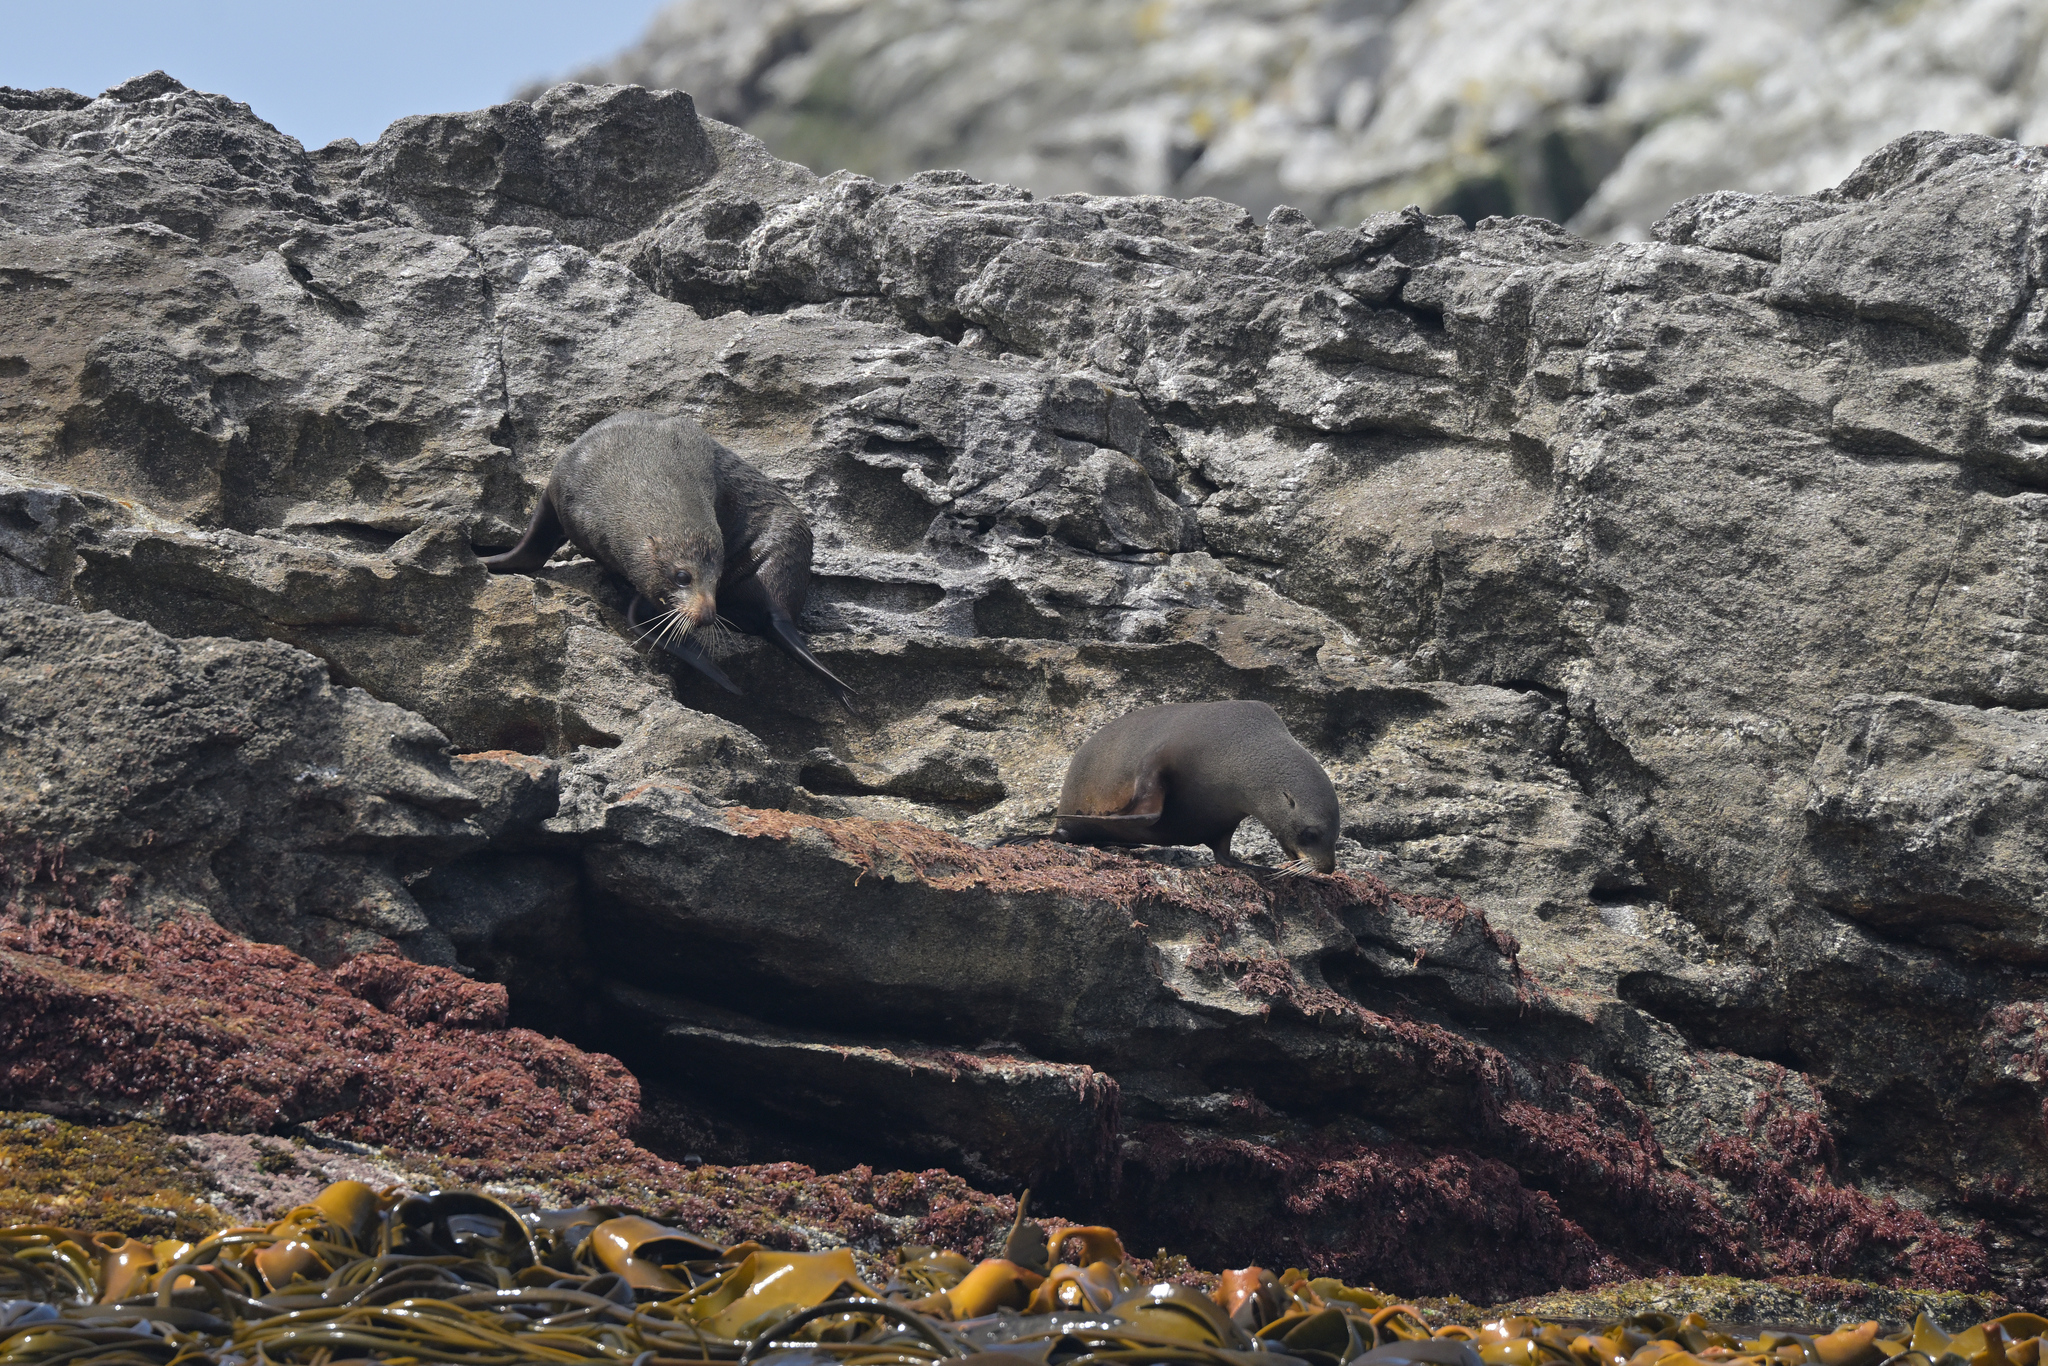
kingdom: Animalia
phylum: Chordata
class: Mammalia
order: Carnivora
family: Otariidae
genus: Arctocephalus
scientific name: Arctocephalus forsteri
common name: New zealand fur seal
